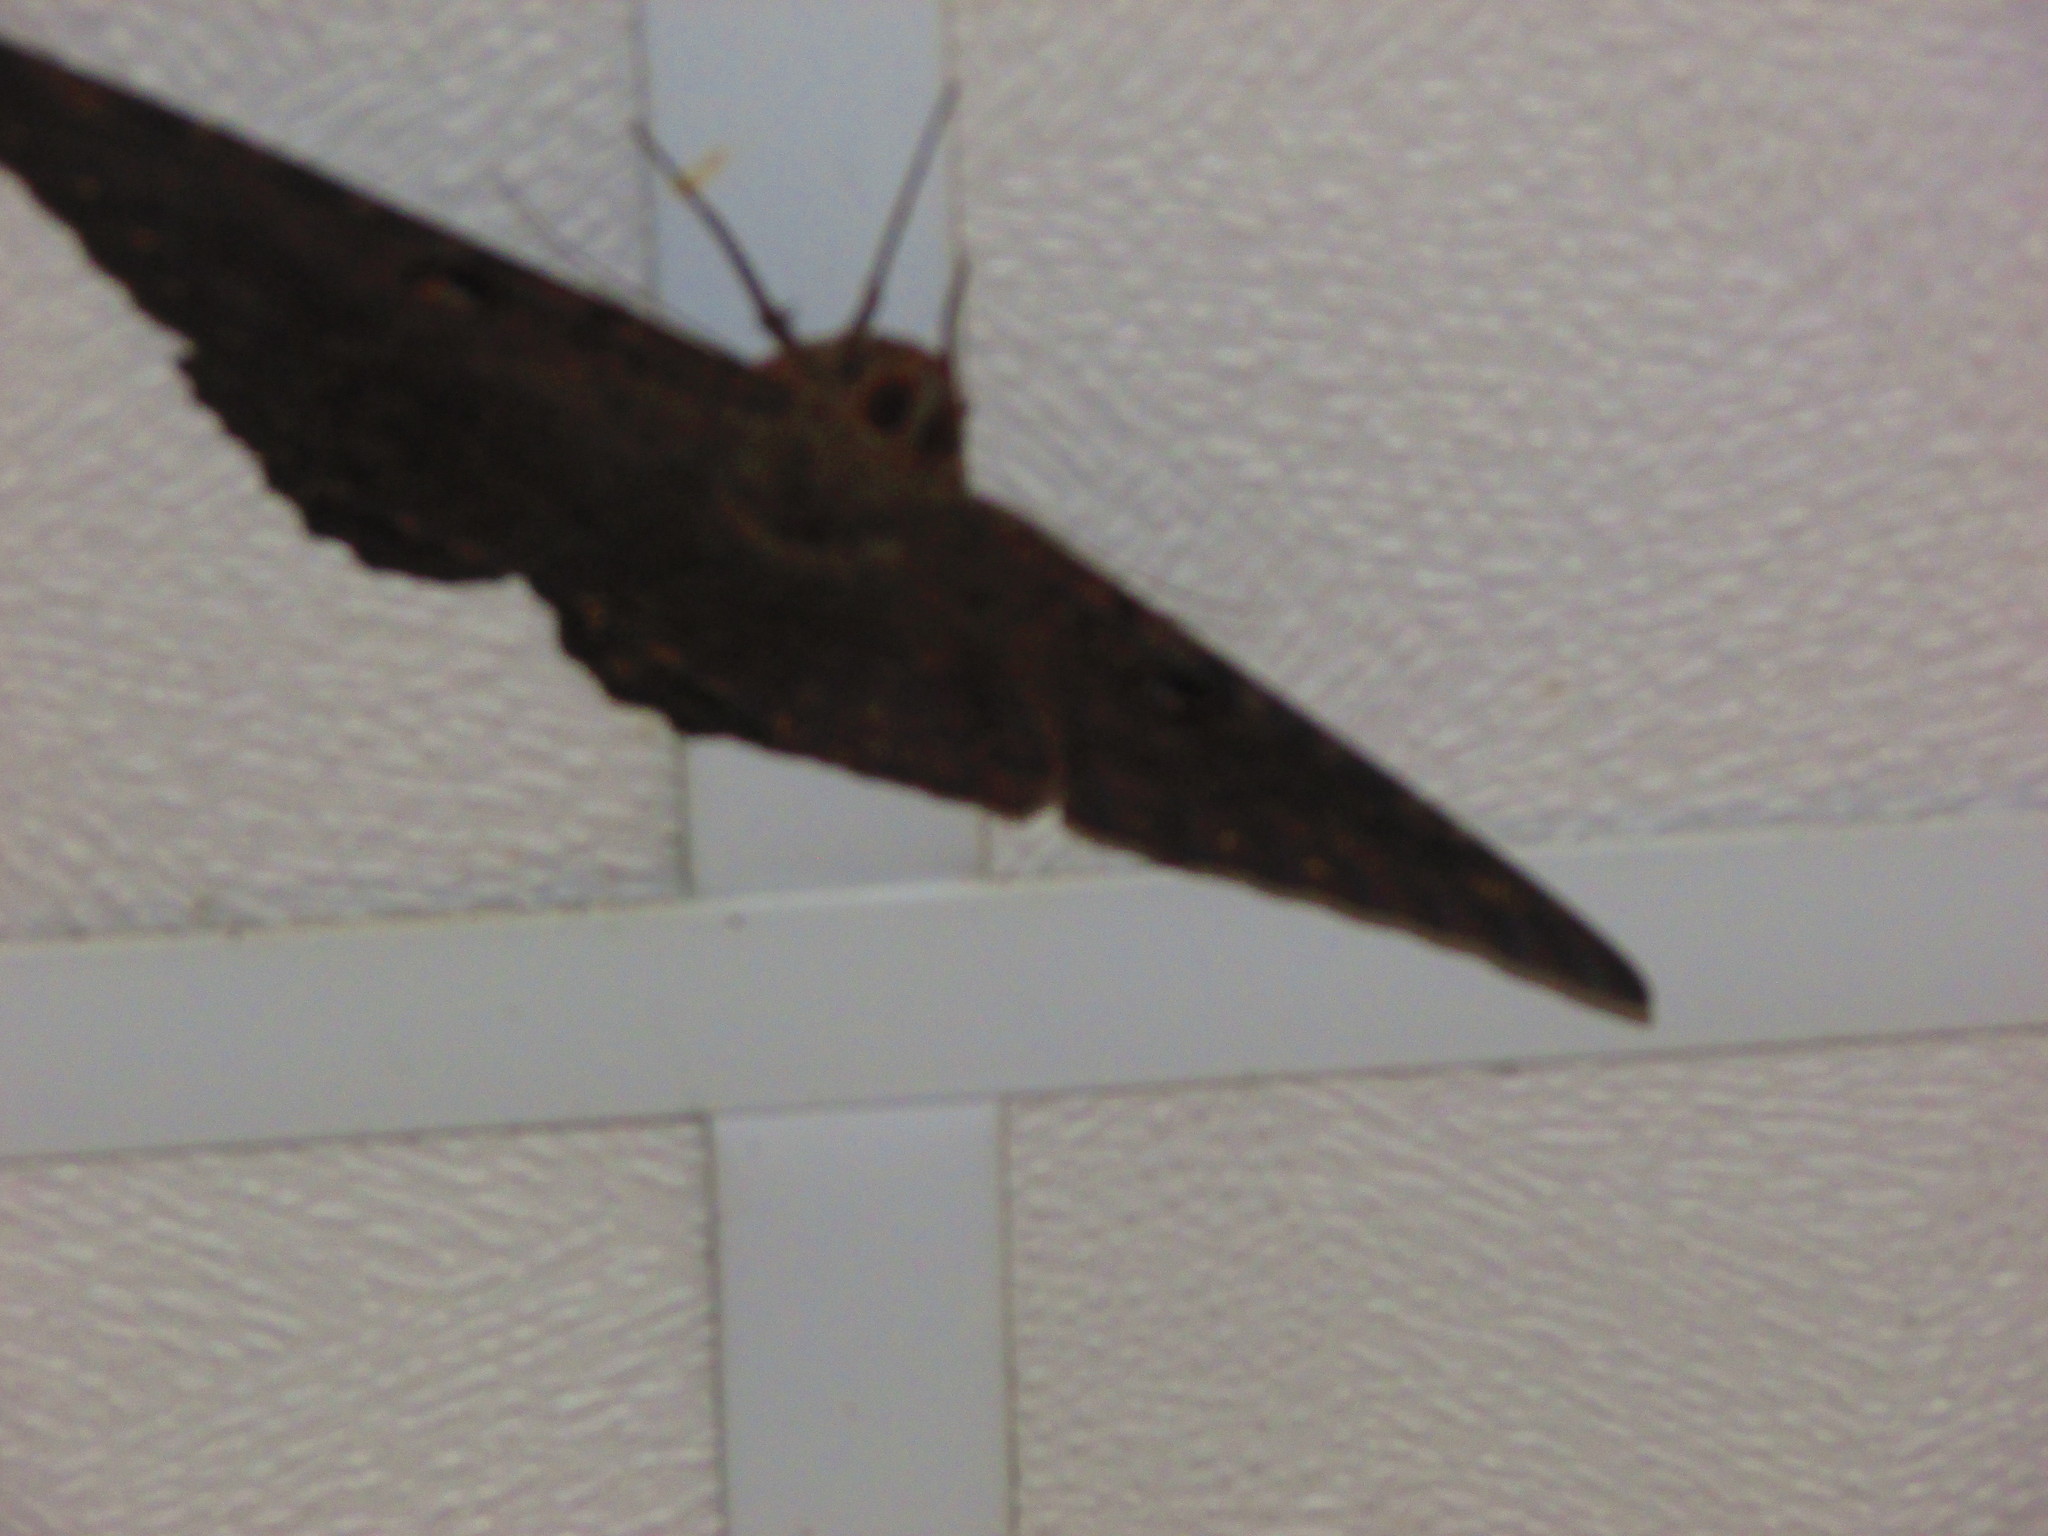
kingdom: Animalia
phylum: Arthropoda
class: Insecta
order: Lepidoptera
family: Erebidae
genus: Ascalapha
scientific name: Ascalapha odorata
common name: Black witch
